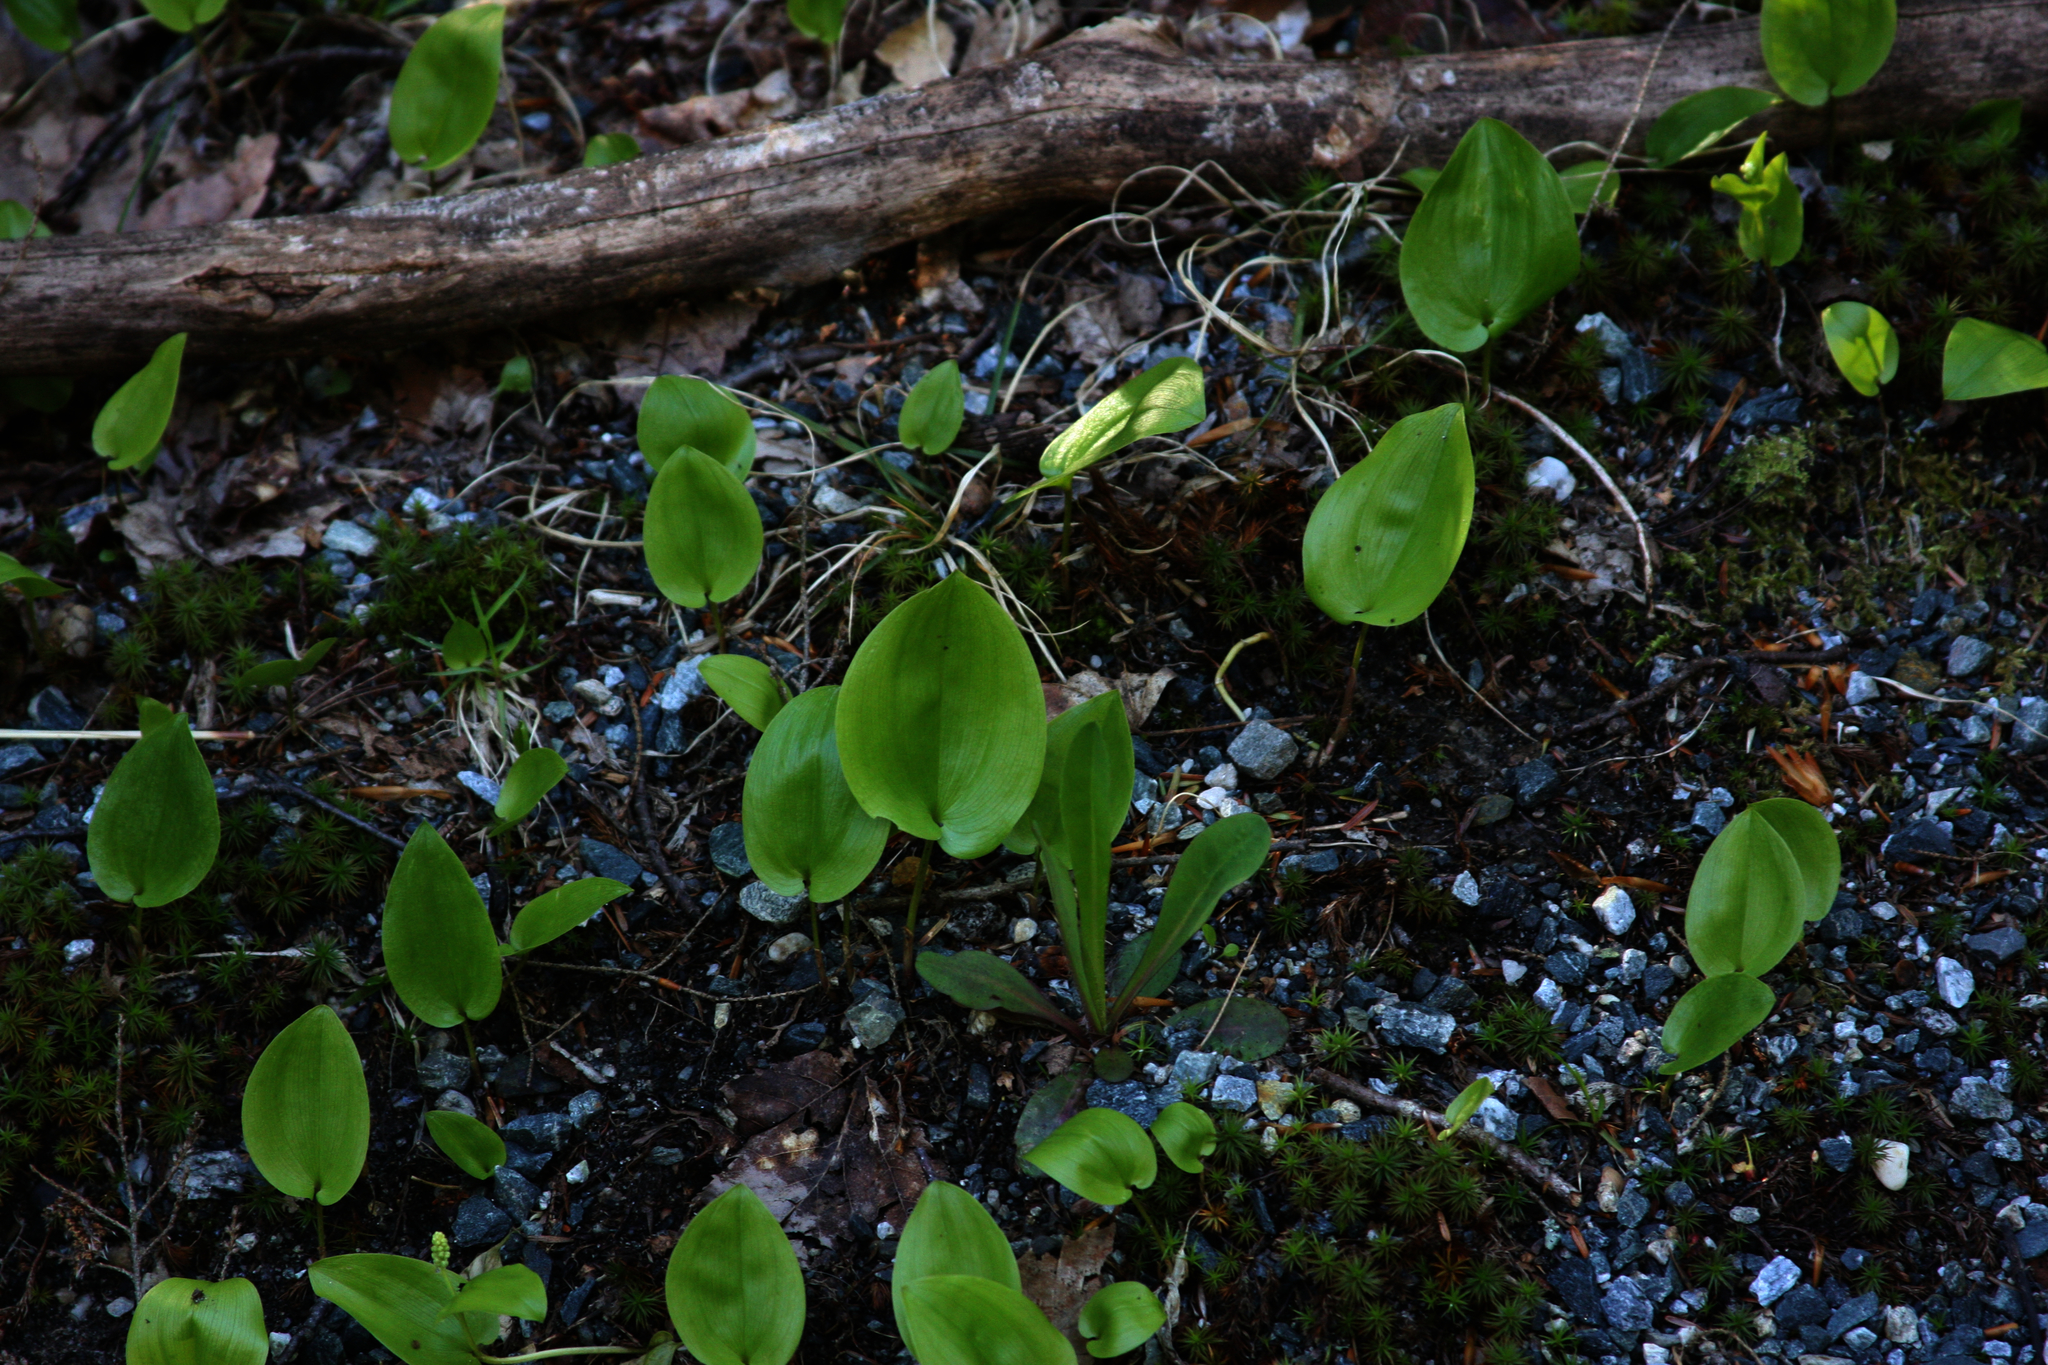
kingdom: Plantae
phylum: Tracheophyta
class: Liliopsida
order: Asparagales
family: Asparagaceae
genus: Maianthemum
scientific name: Maianthemum canadense
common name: False lily-of-the-valley
